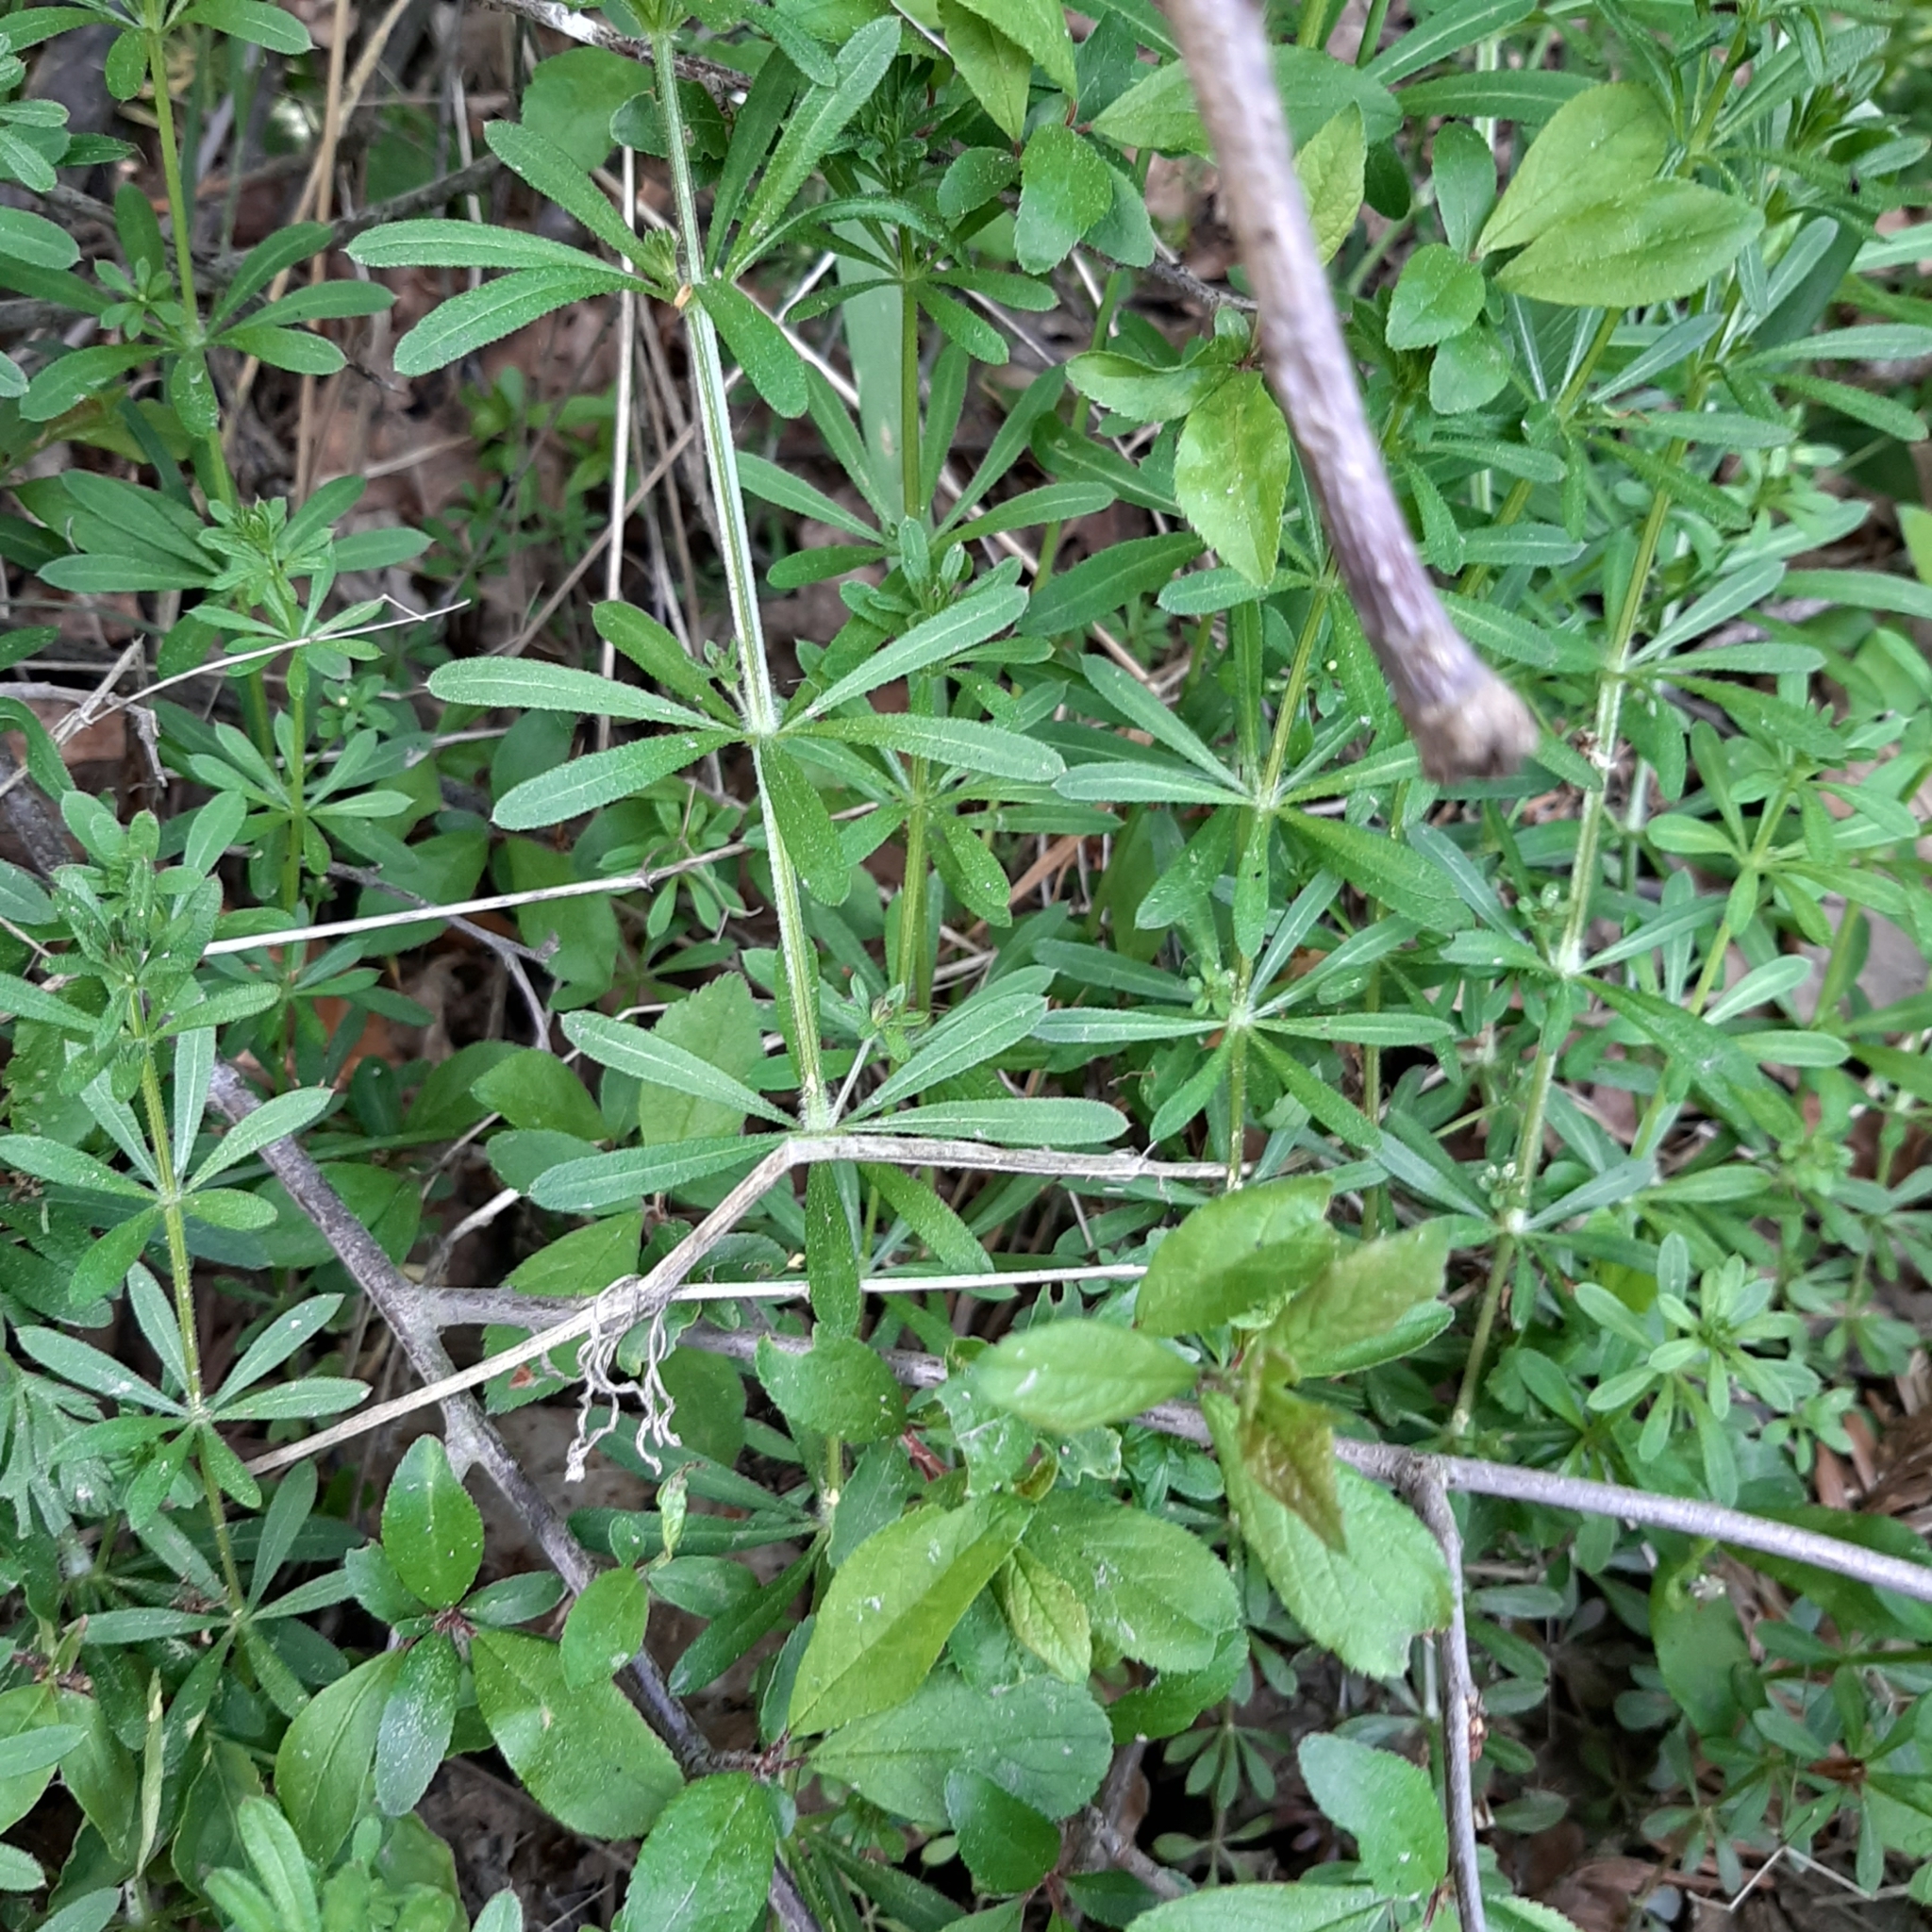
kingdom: Plantae
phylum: Tracheophyta
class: Magnoliopsida
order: Gentianales
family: Rubiaceae
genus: Galium
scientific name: Galium aparine
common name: Cleavers
